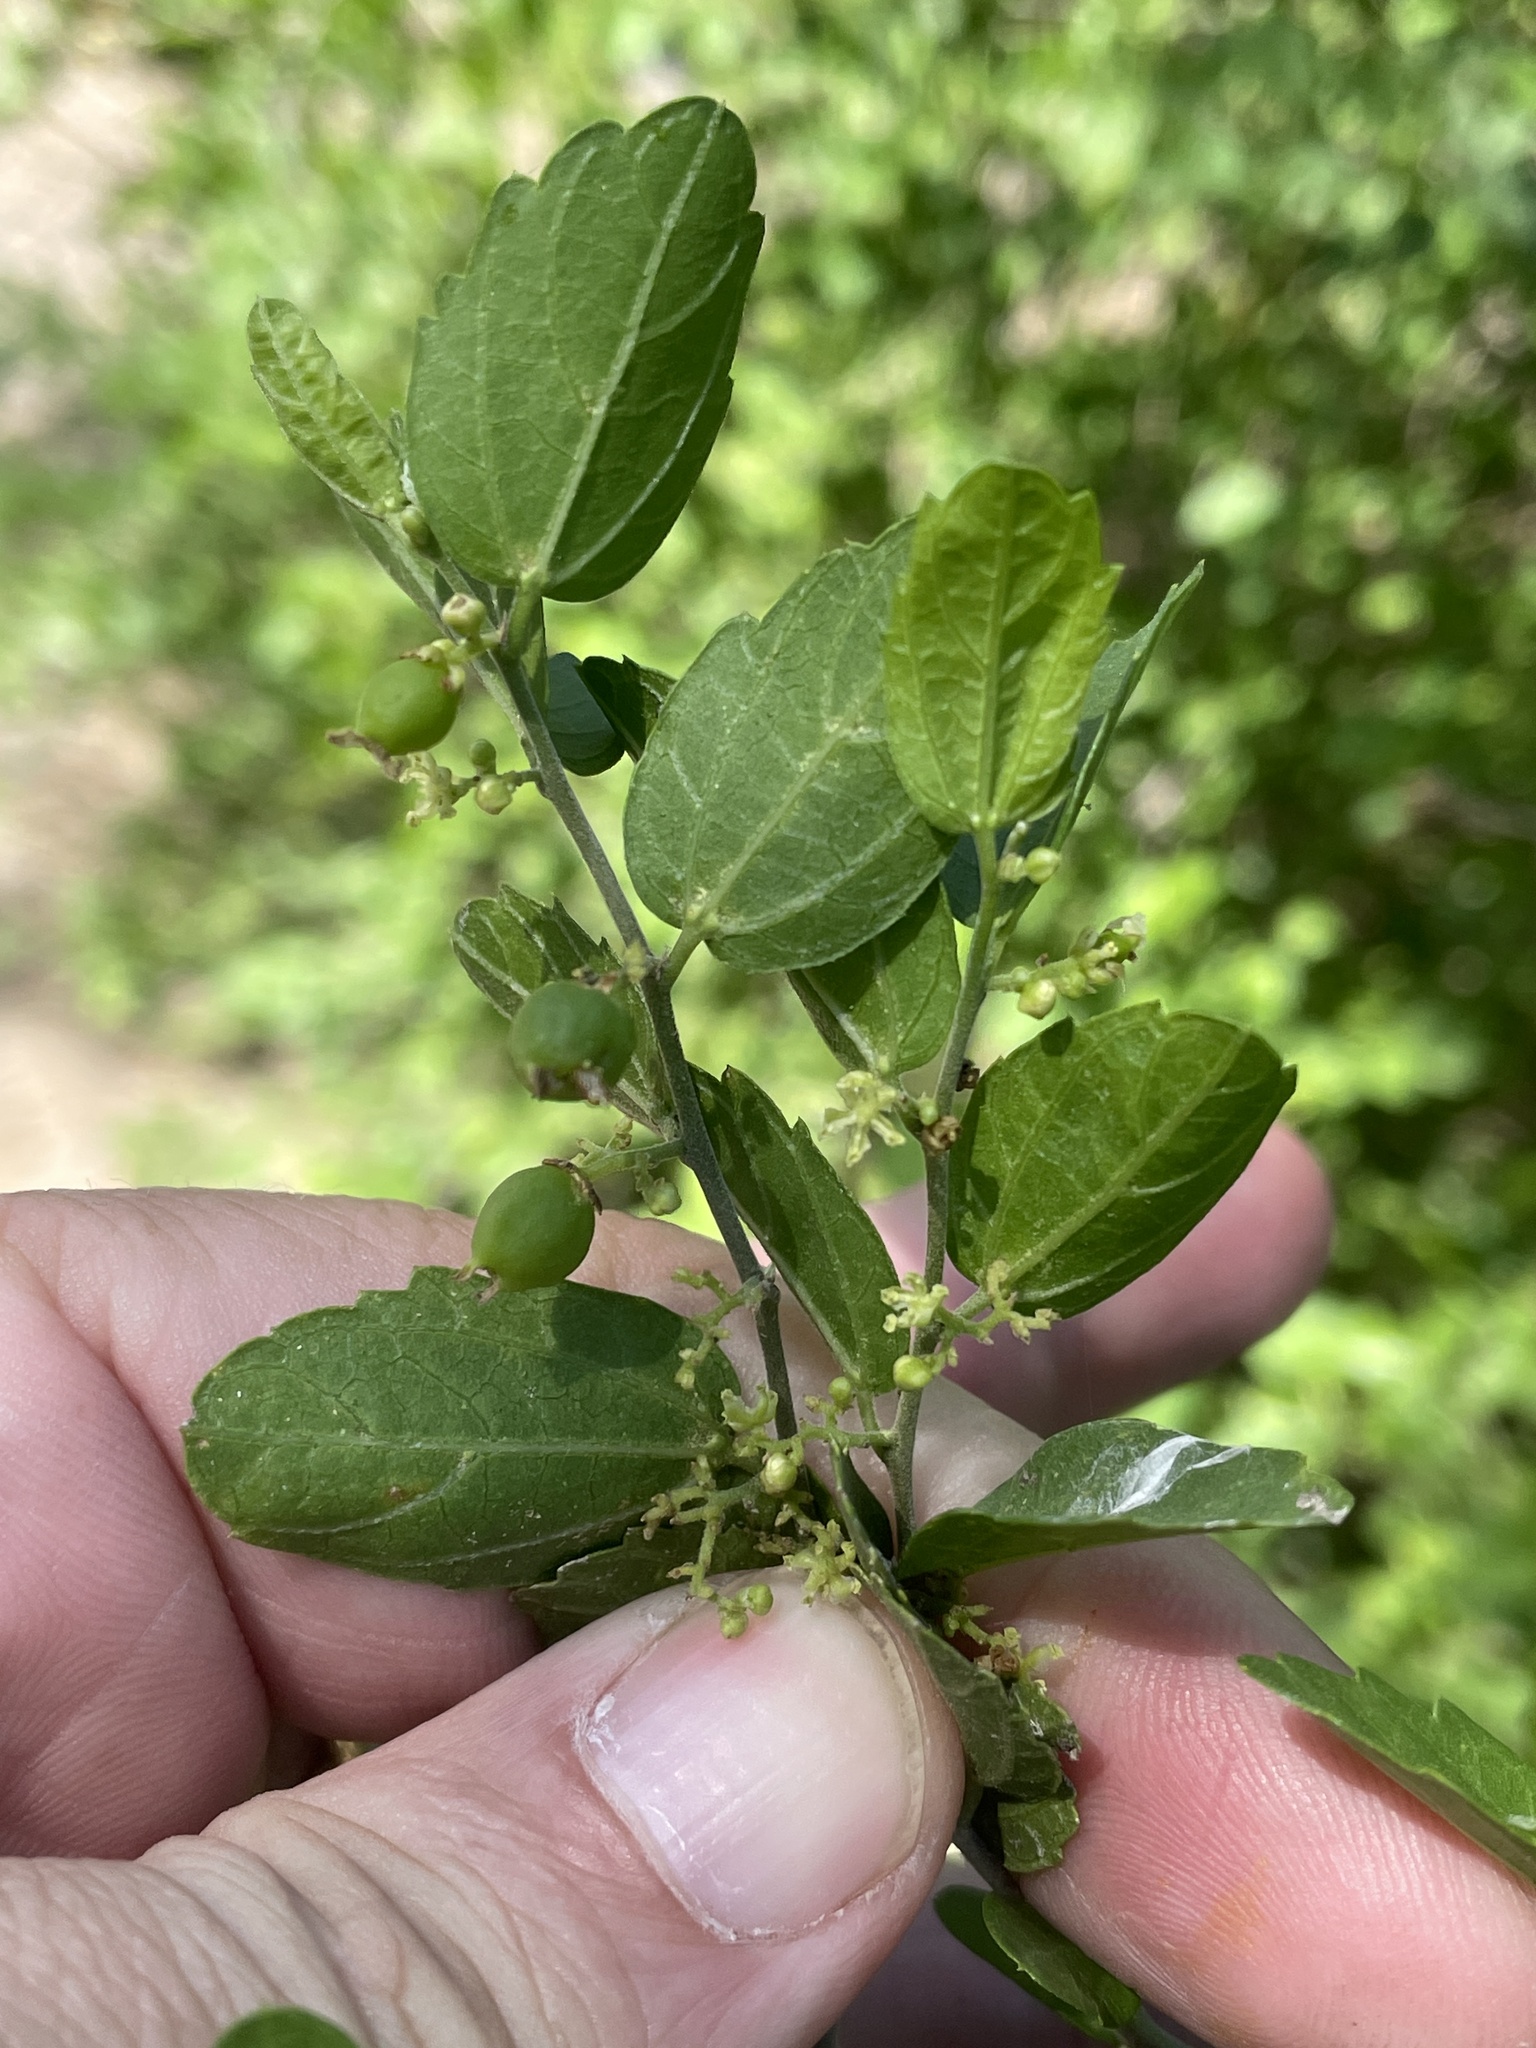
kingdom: Plantae
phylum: Tracheophyta
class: Magnoliopsida
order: Rosales
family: Cannabaceae
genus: Celtis
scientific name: Celtis pallida
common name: Desert hackberry
